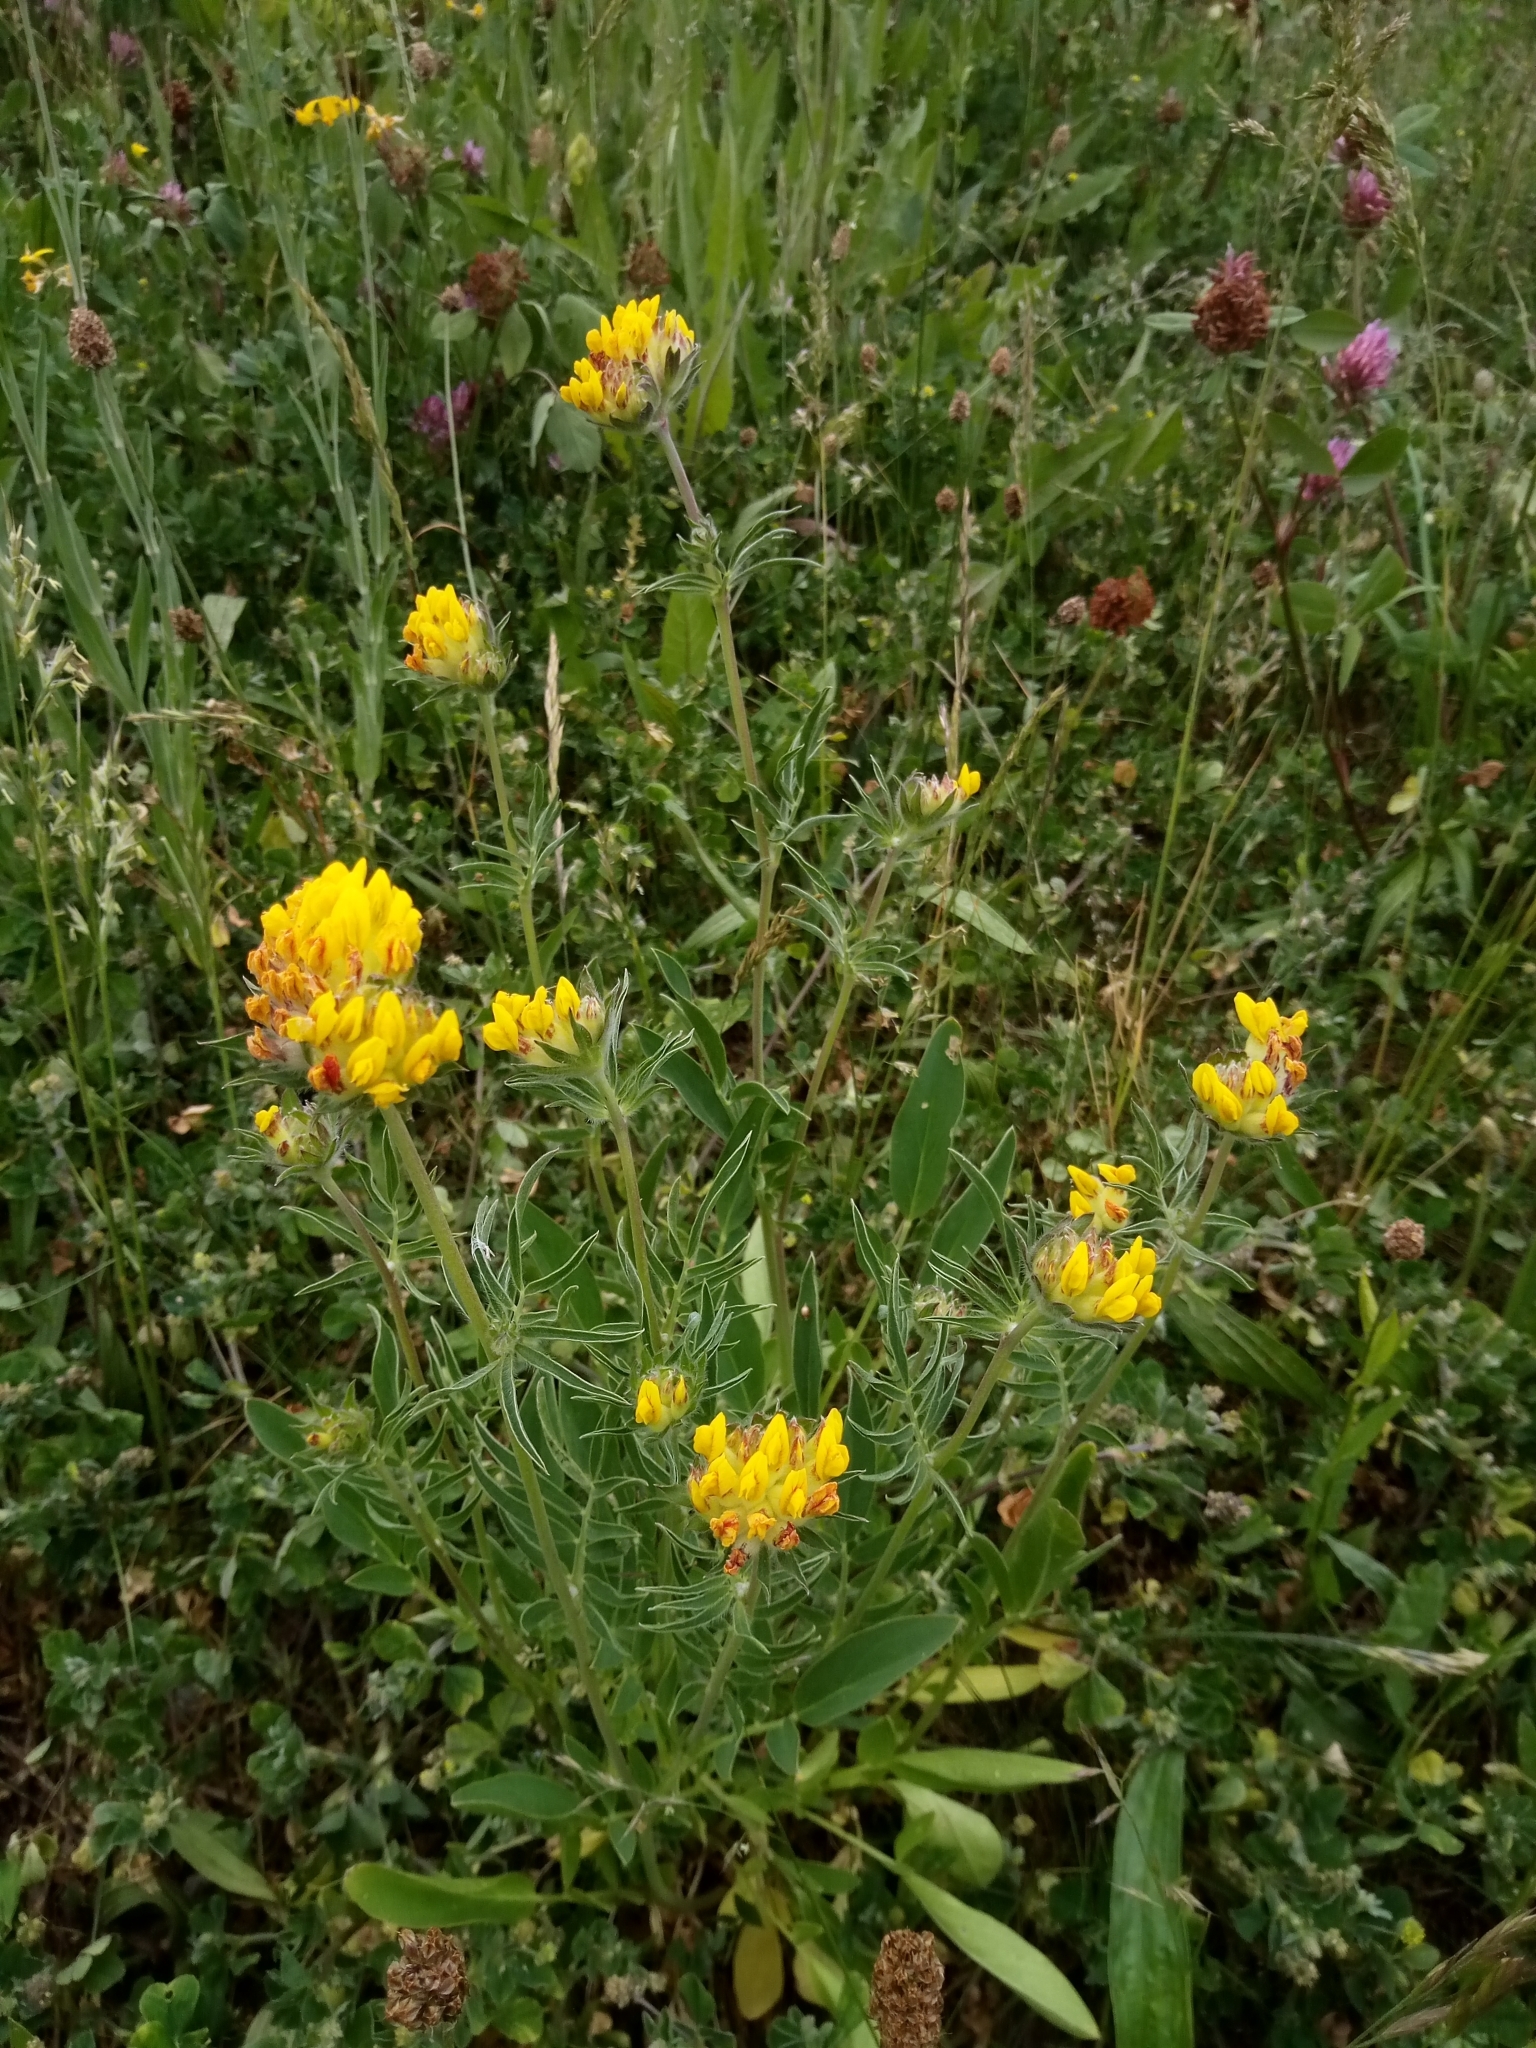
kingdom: Plantae
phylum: Tracheophyta
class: Magnoliopsida
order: Fabales
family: Fabaceae
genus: Anthyllis
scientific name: Anthyllis vulneraria
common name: Kidney vetch
